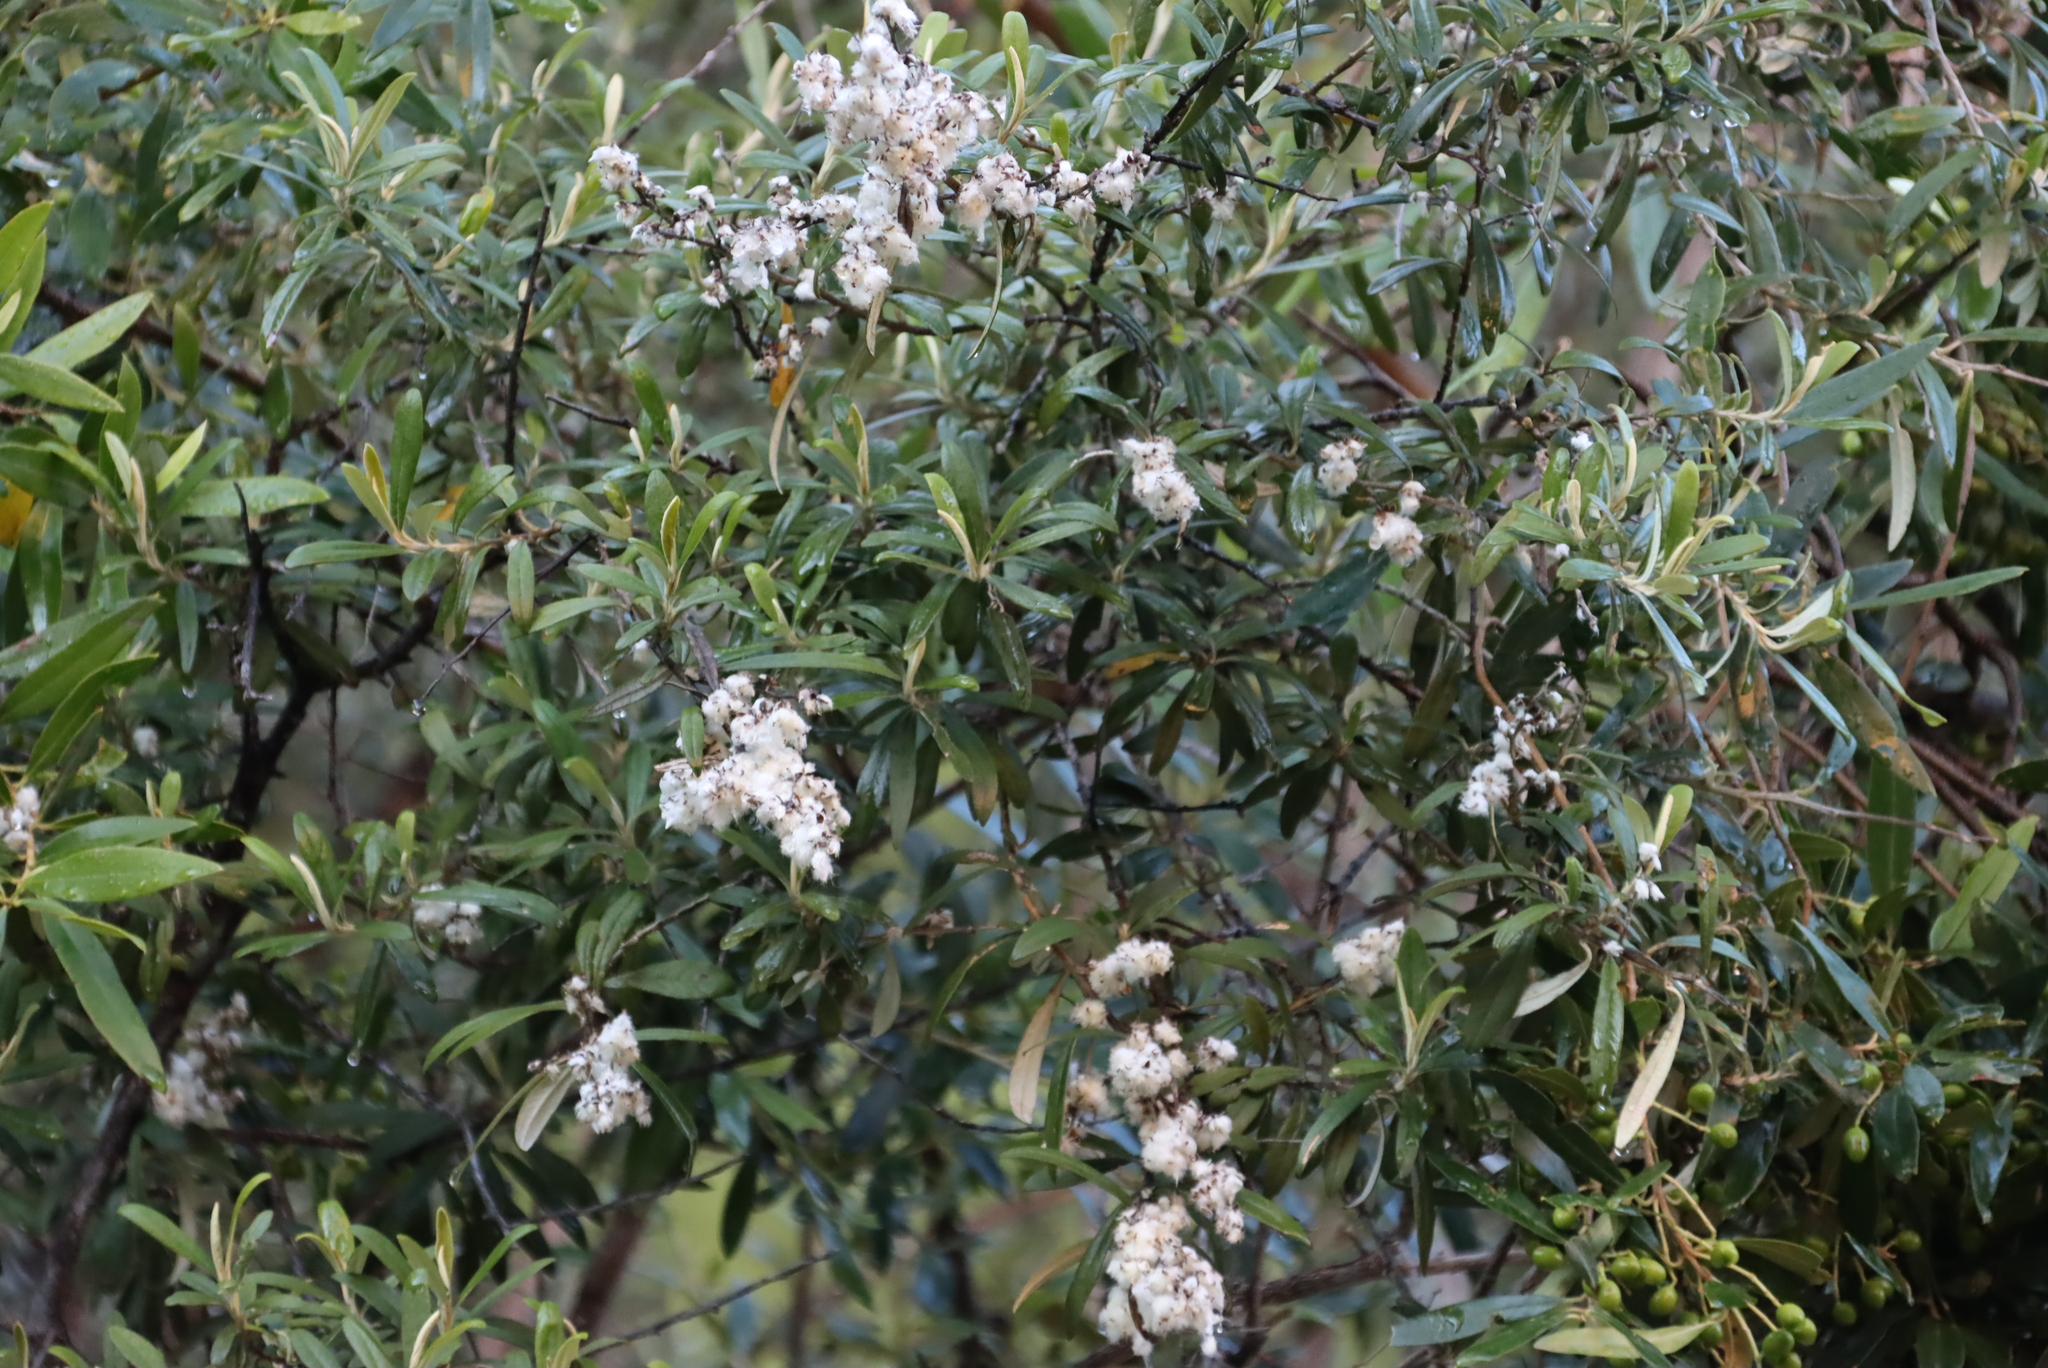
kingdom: Plantae
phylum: Tracheophyta
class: Magnoliopsida
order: Asterales
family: Asteraceae
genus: Tarchonanthus
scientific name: Tarchonanthus littoralis
